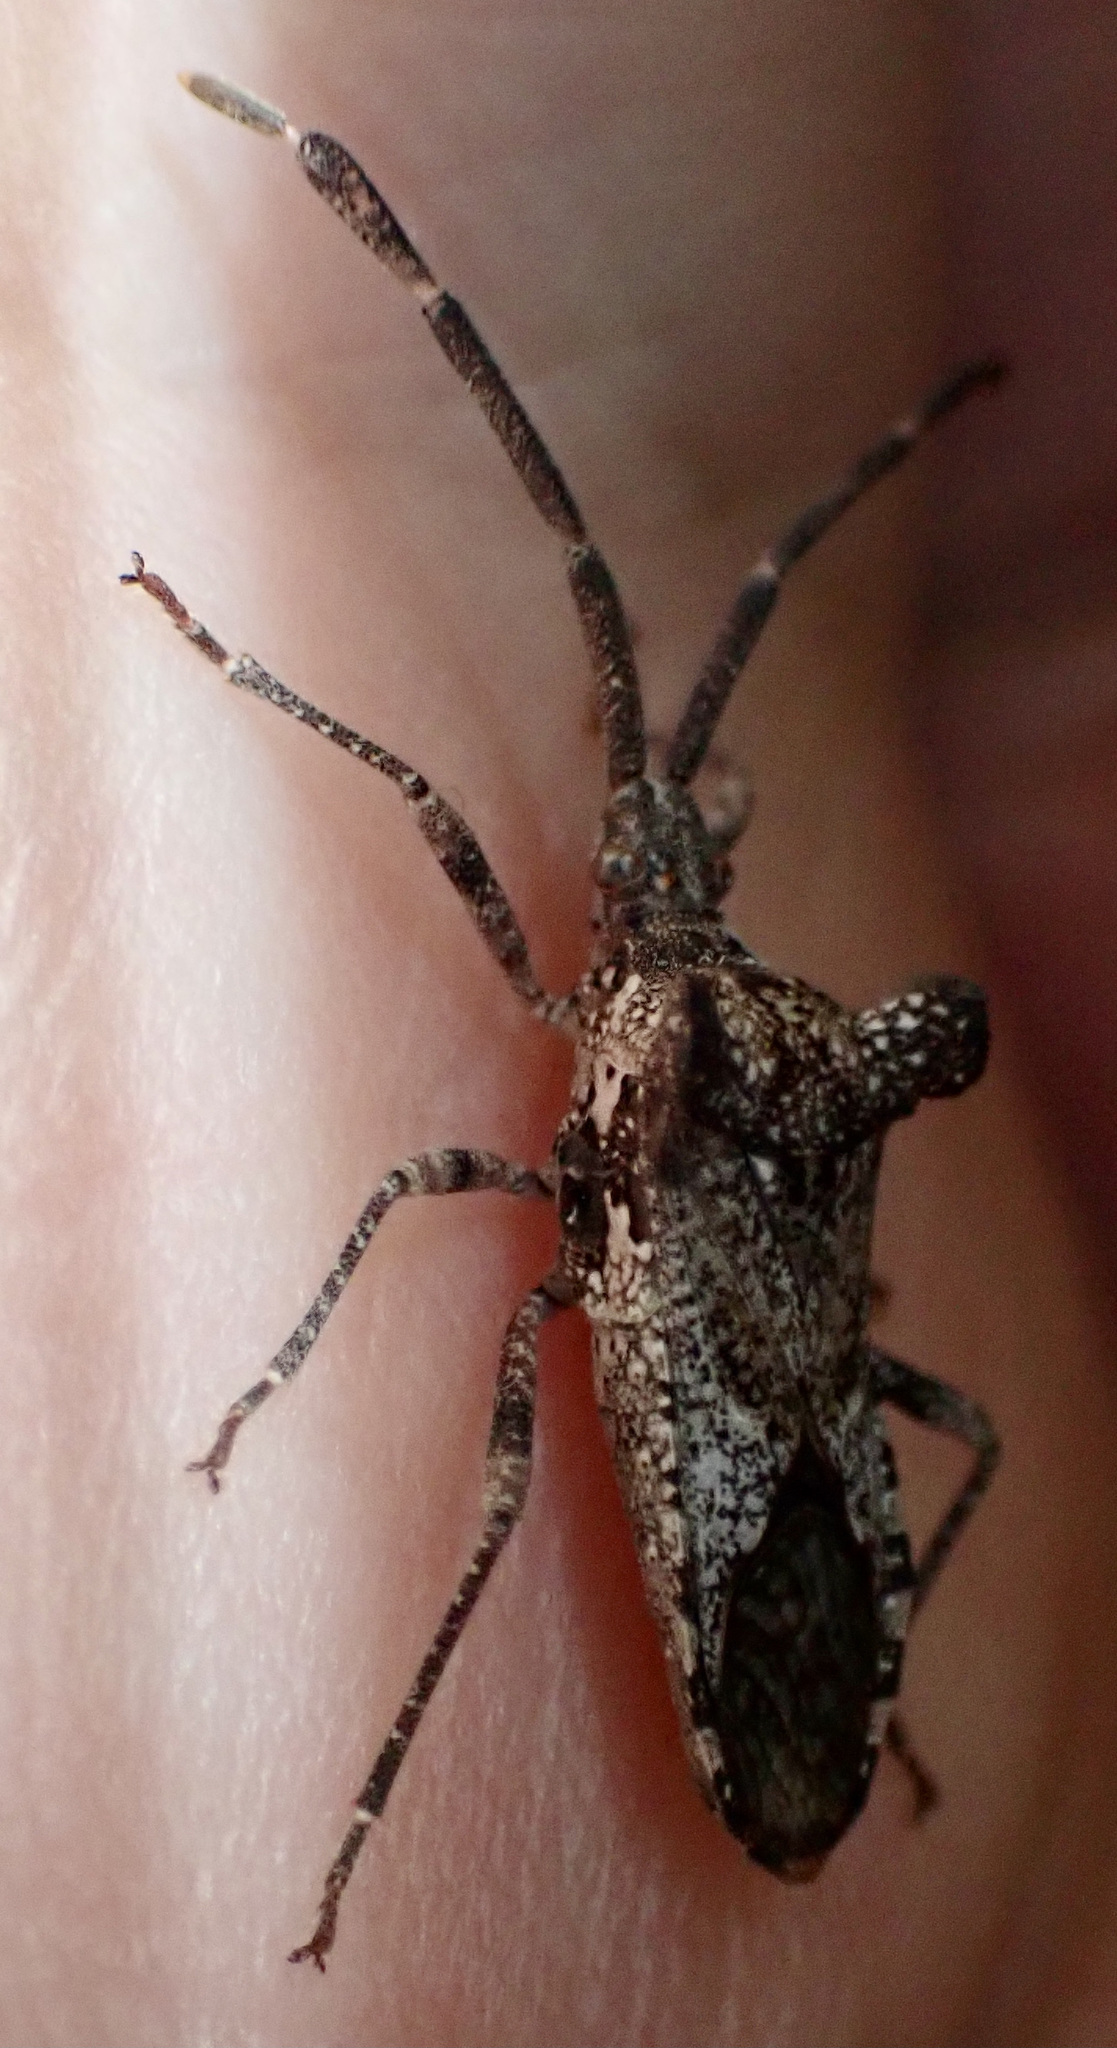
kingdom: Animalia
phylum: Arthropoda
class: Insecta
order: Hemiptera
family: Coreidae
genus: Prismatocerus
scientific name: Prismatocerus auriculatus
